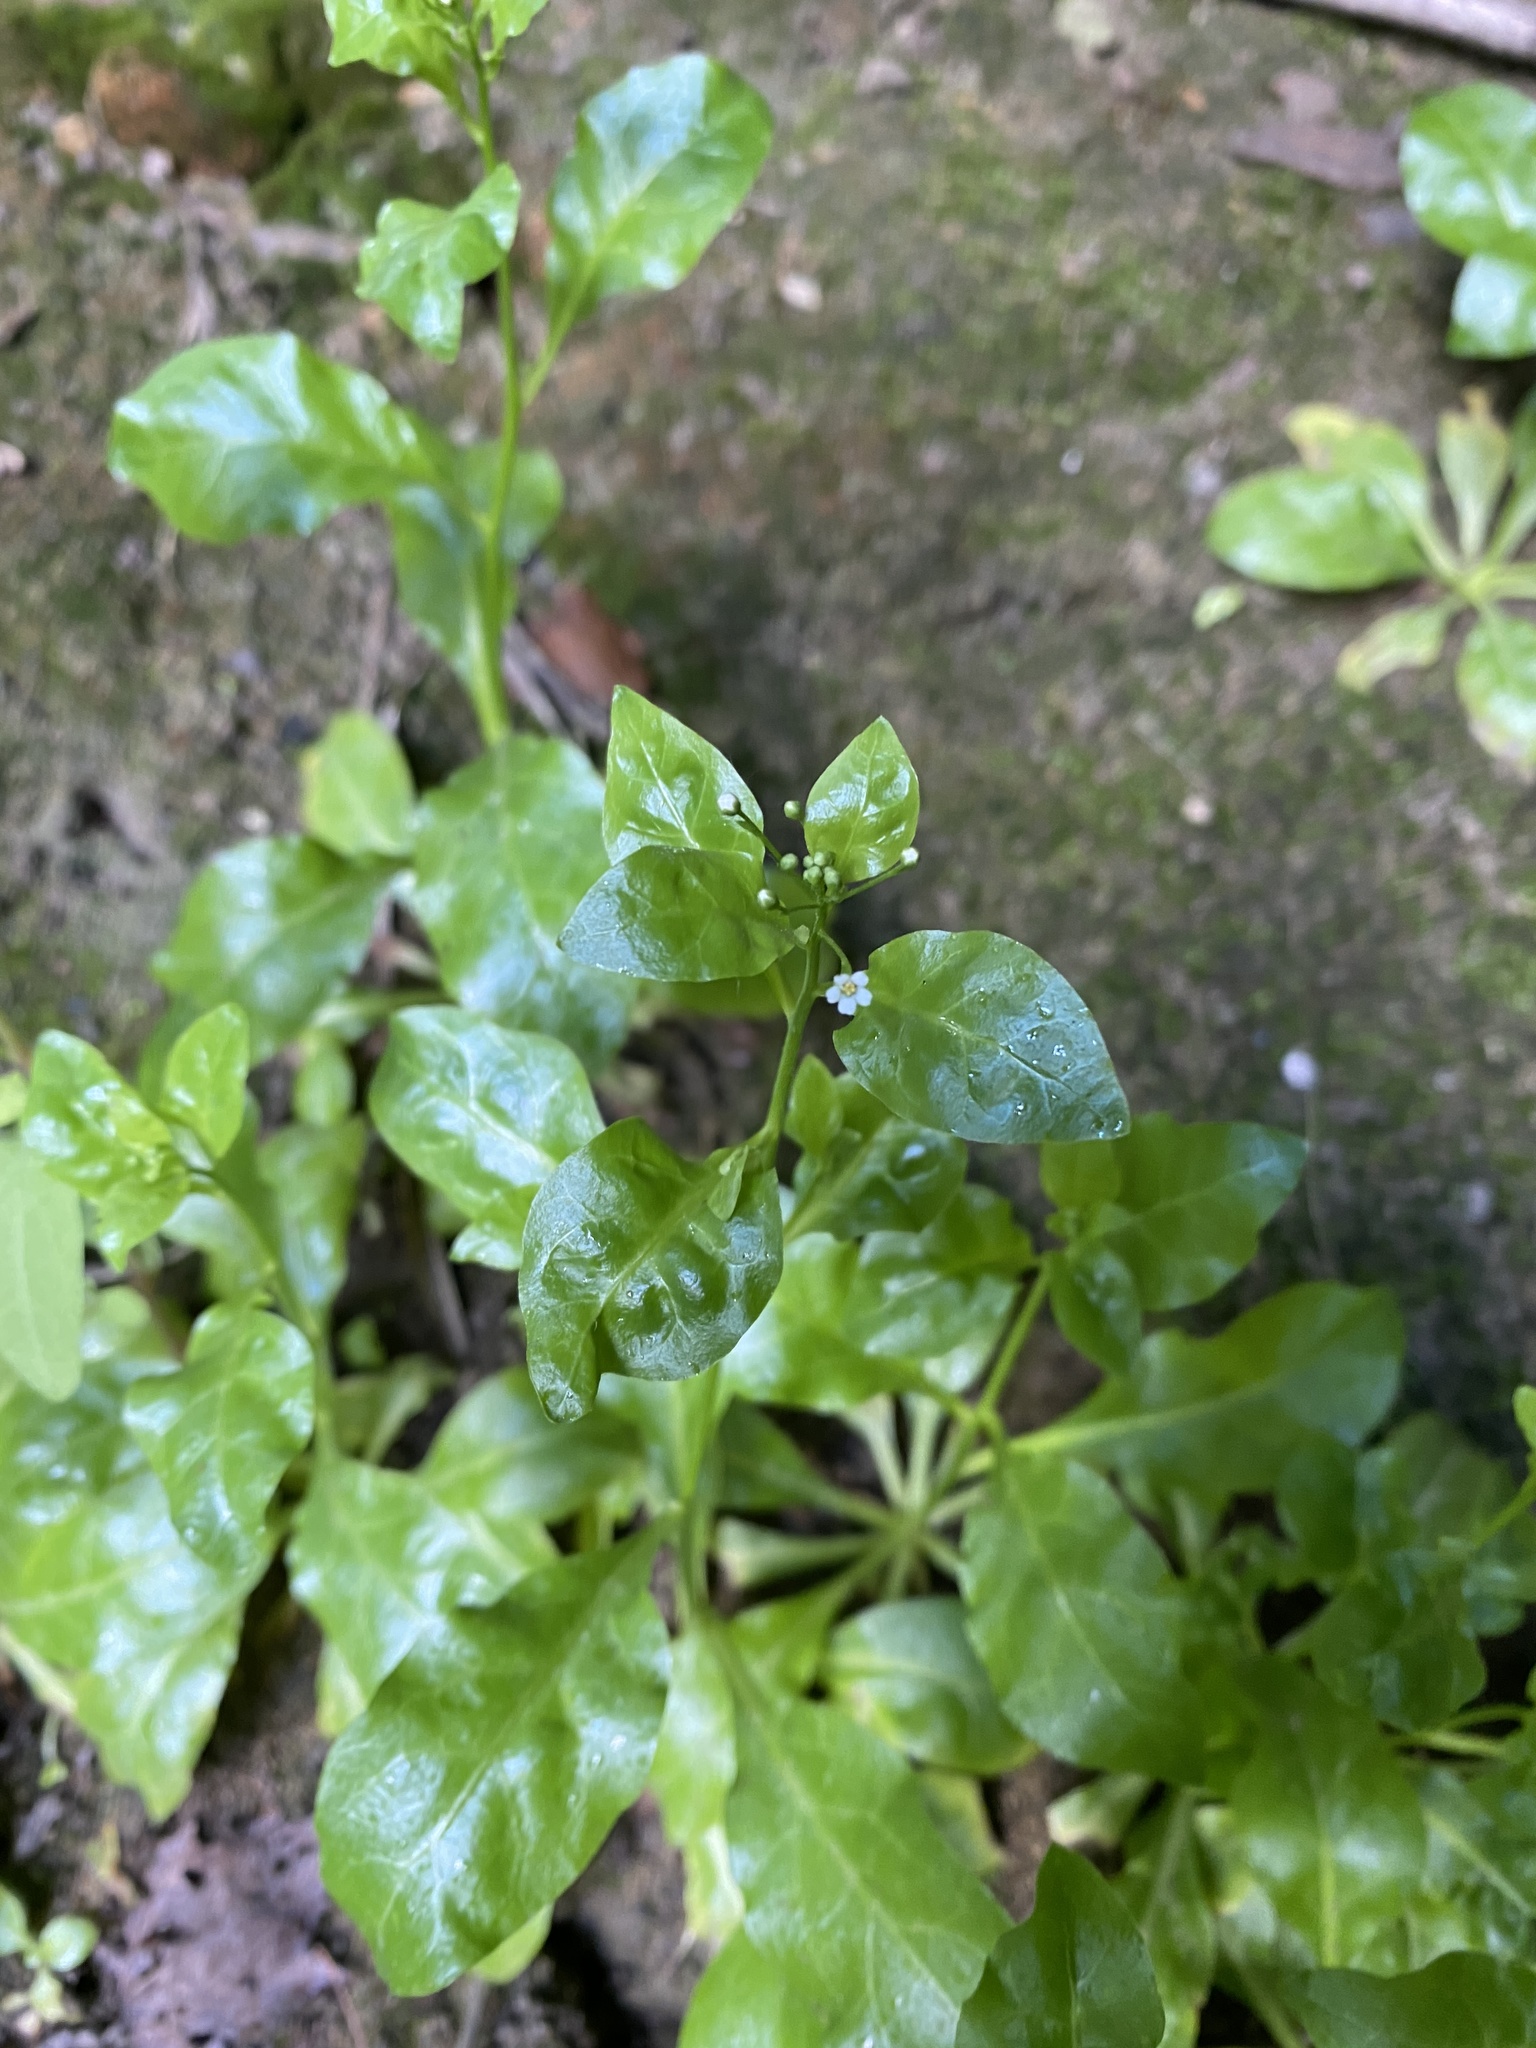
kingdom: Plantae
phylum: Tracheophyta
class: Magnoliopsida
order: Ericales
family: Primulaceae
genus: Samolus
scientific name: Samolus parviflorus
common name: False water pimpernel
